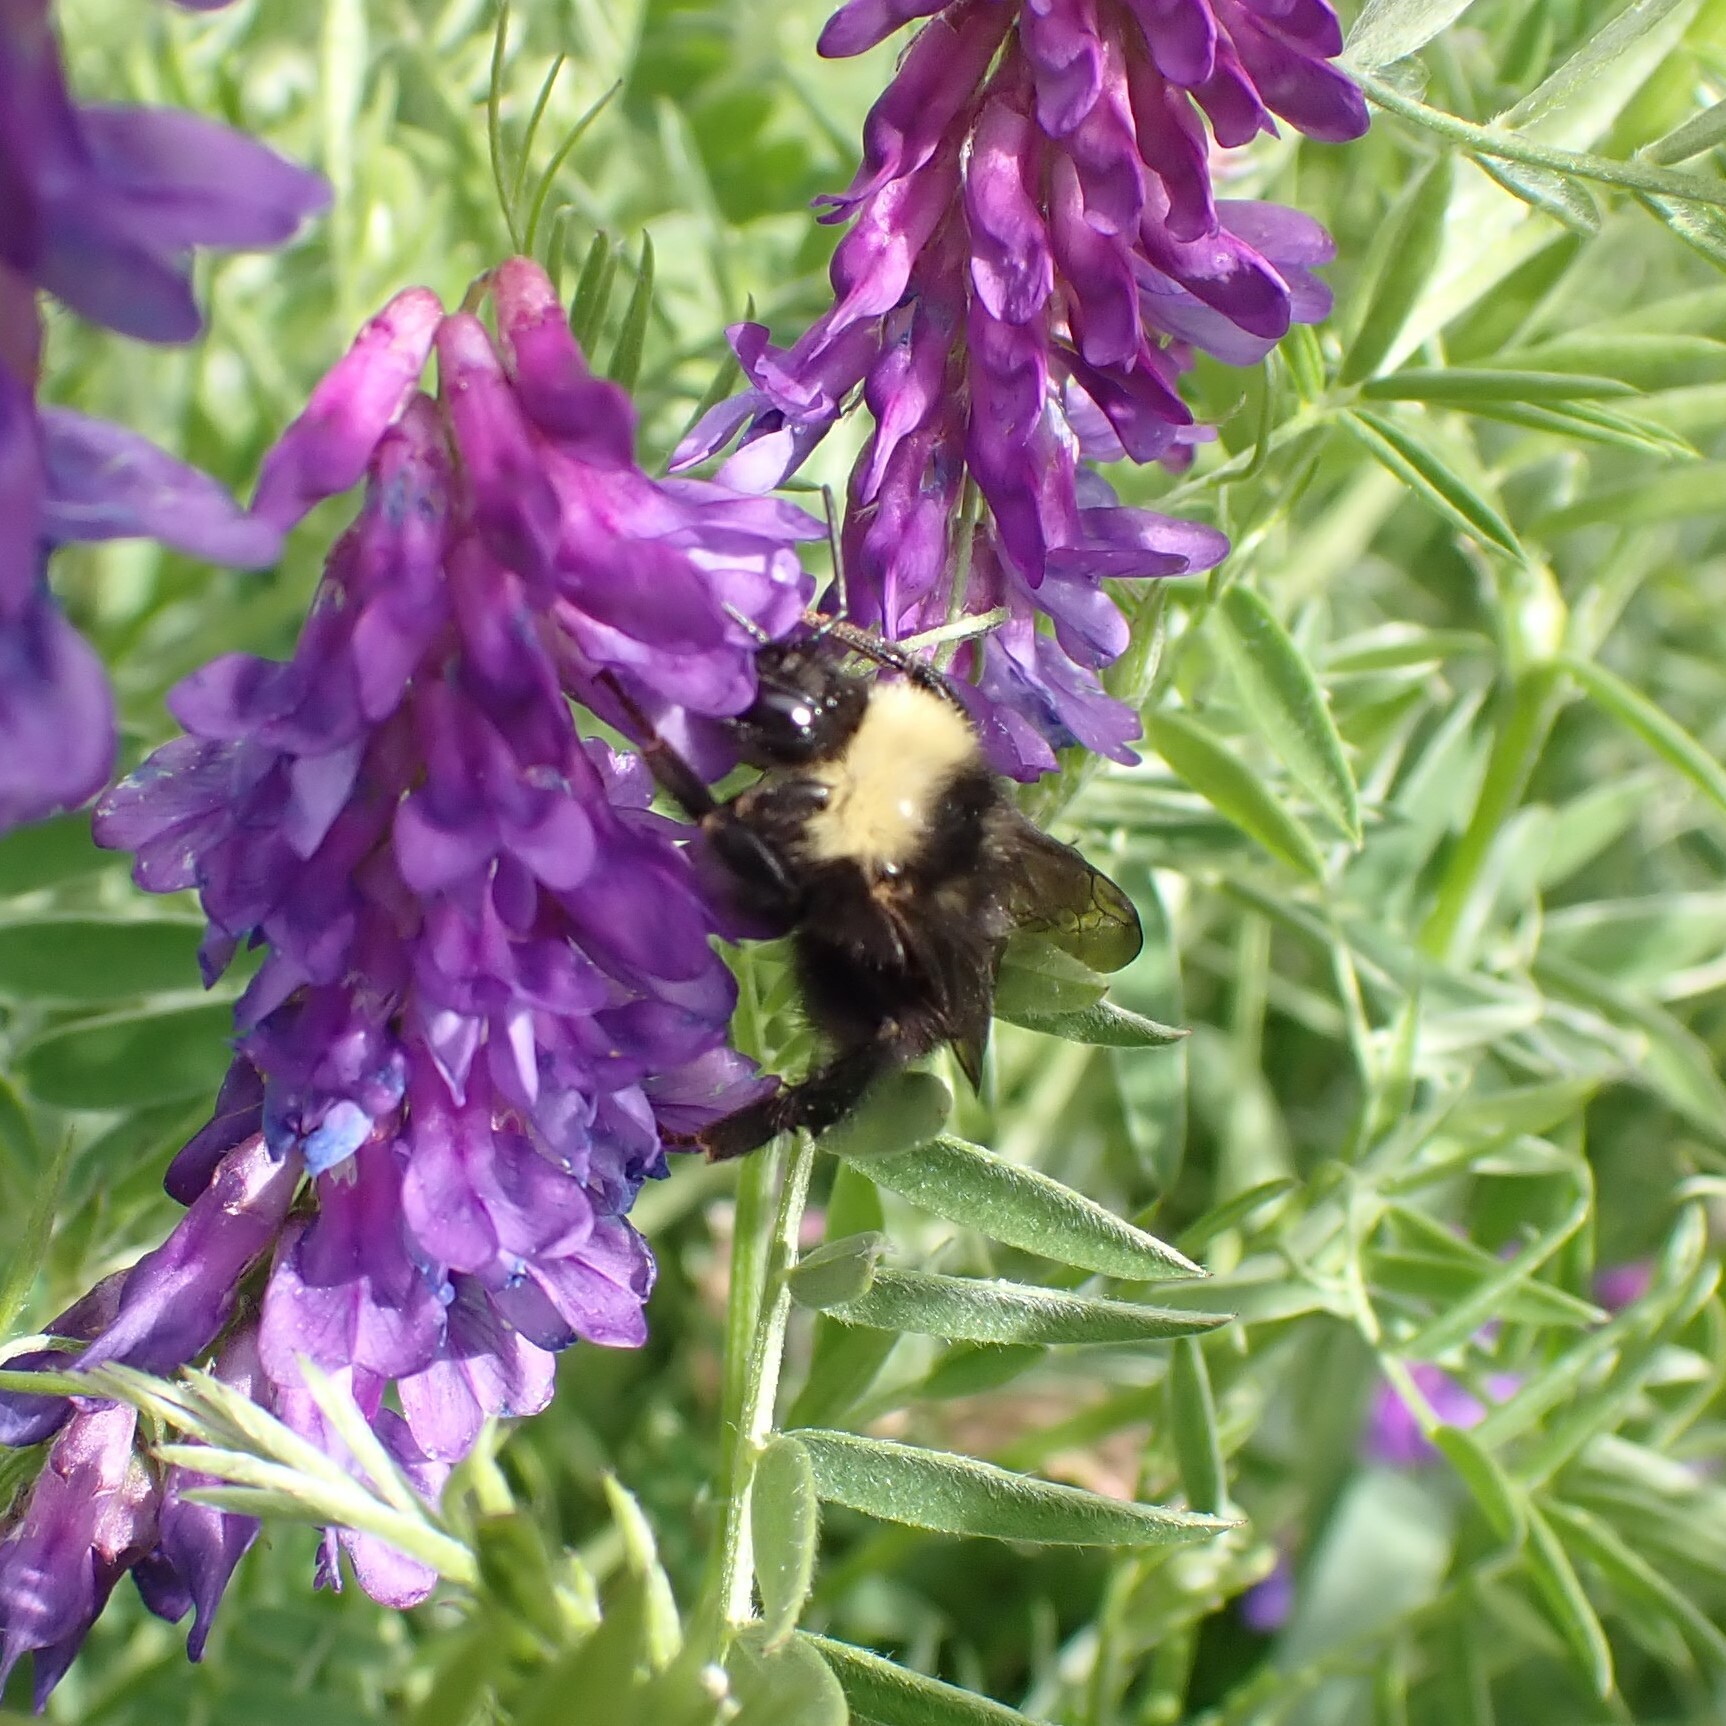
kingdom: Animalia
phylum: Arthropoda
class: Insecta
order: Hymenoptera
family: Apidae
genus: Bombus
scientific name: Bombus californicus
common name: California bumble bee
